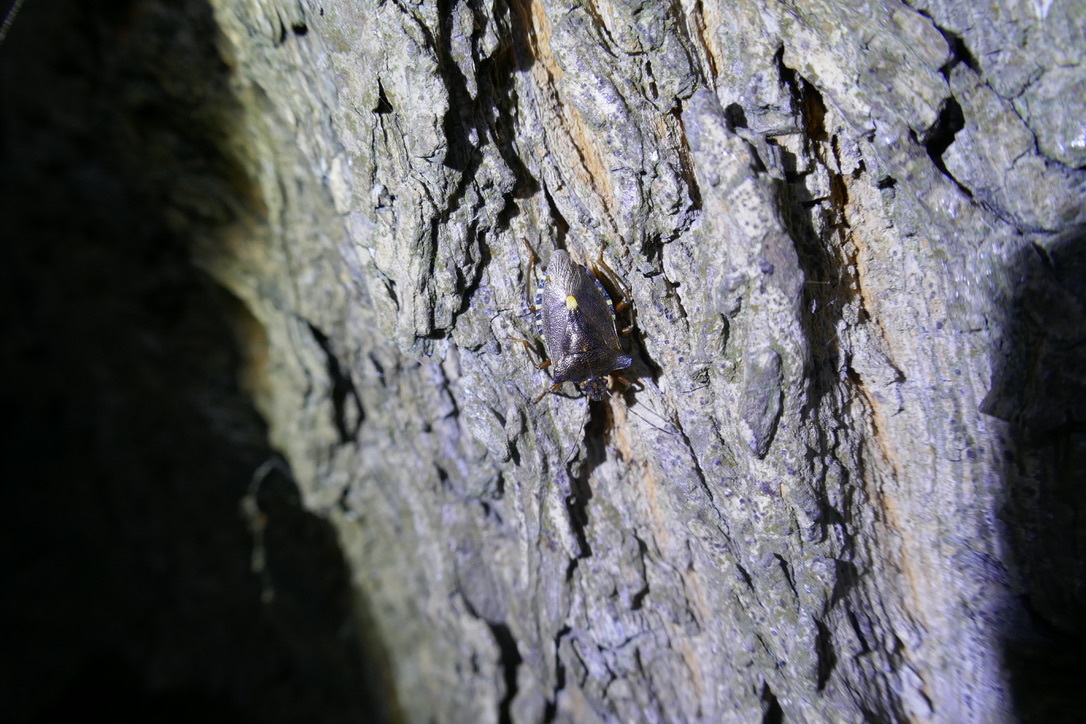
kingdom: Animalia
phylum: Arthropoda
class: Insecta
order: Hemiptera
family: Pentatomidae
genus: Pentatoma
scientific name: Pentatoma rufipes
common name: Forest bug
